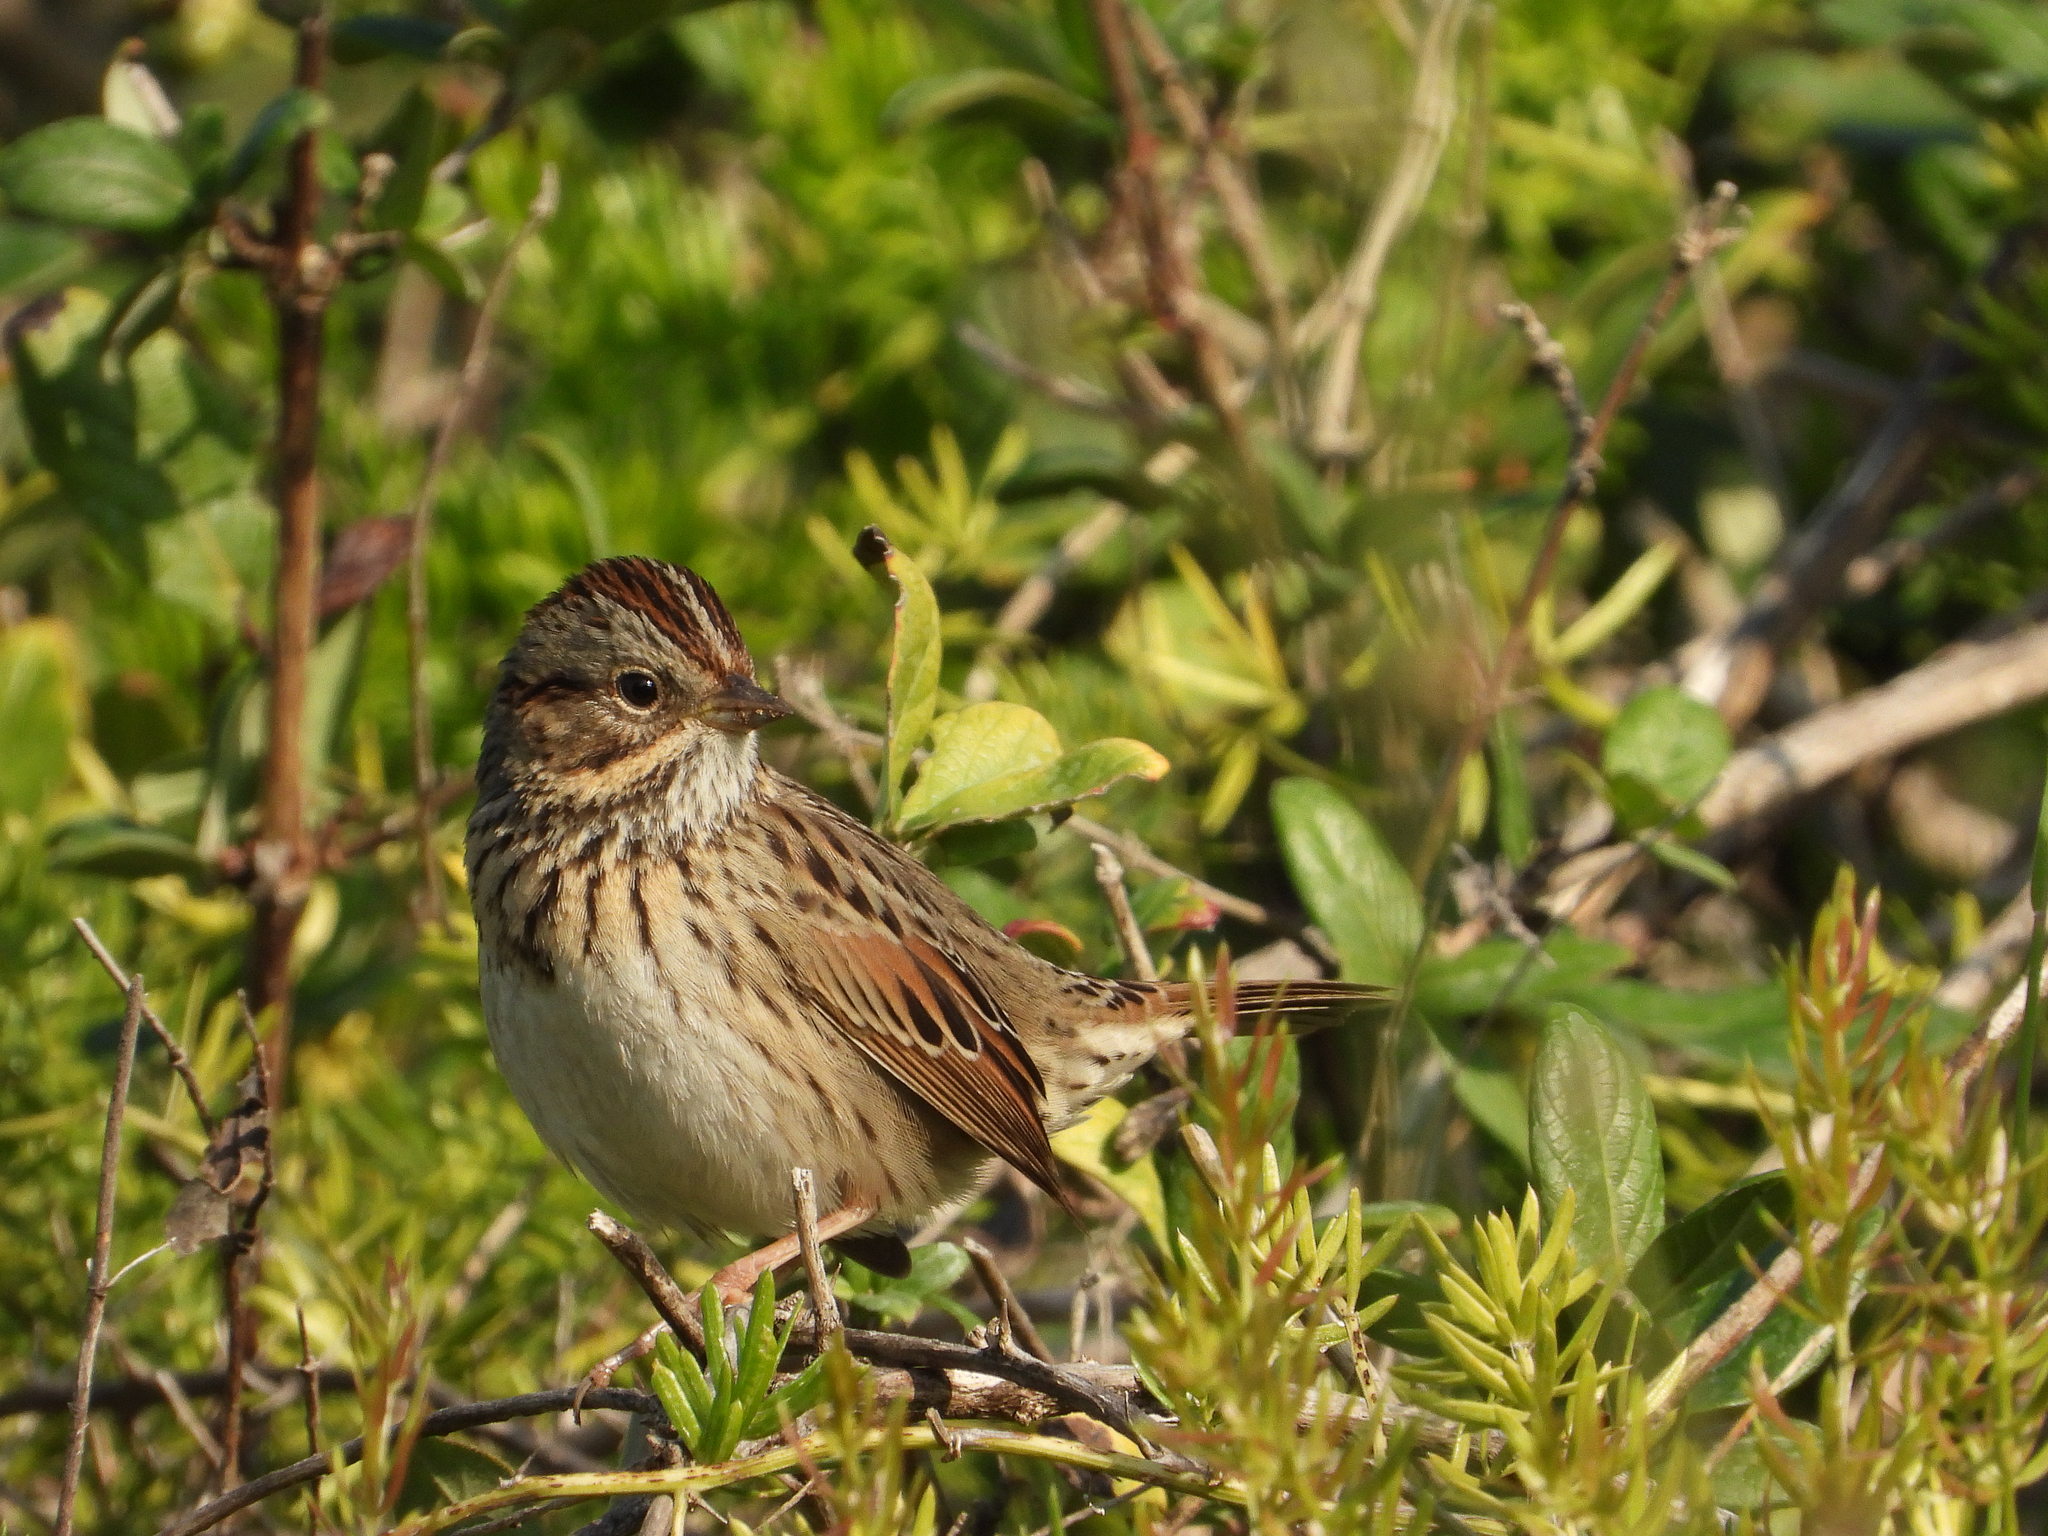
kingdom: Animalia
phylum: Chordata
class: Aves
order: Passeriformes
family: Passerellidae
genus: Melospiza
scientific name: Melospiza lincolnii
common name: Lincoln's sparrow
